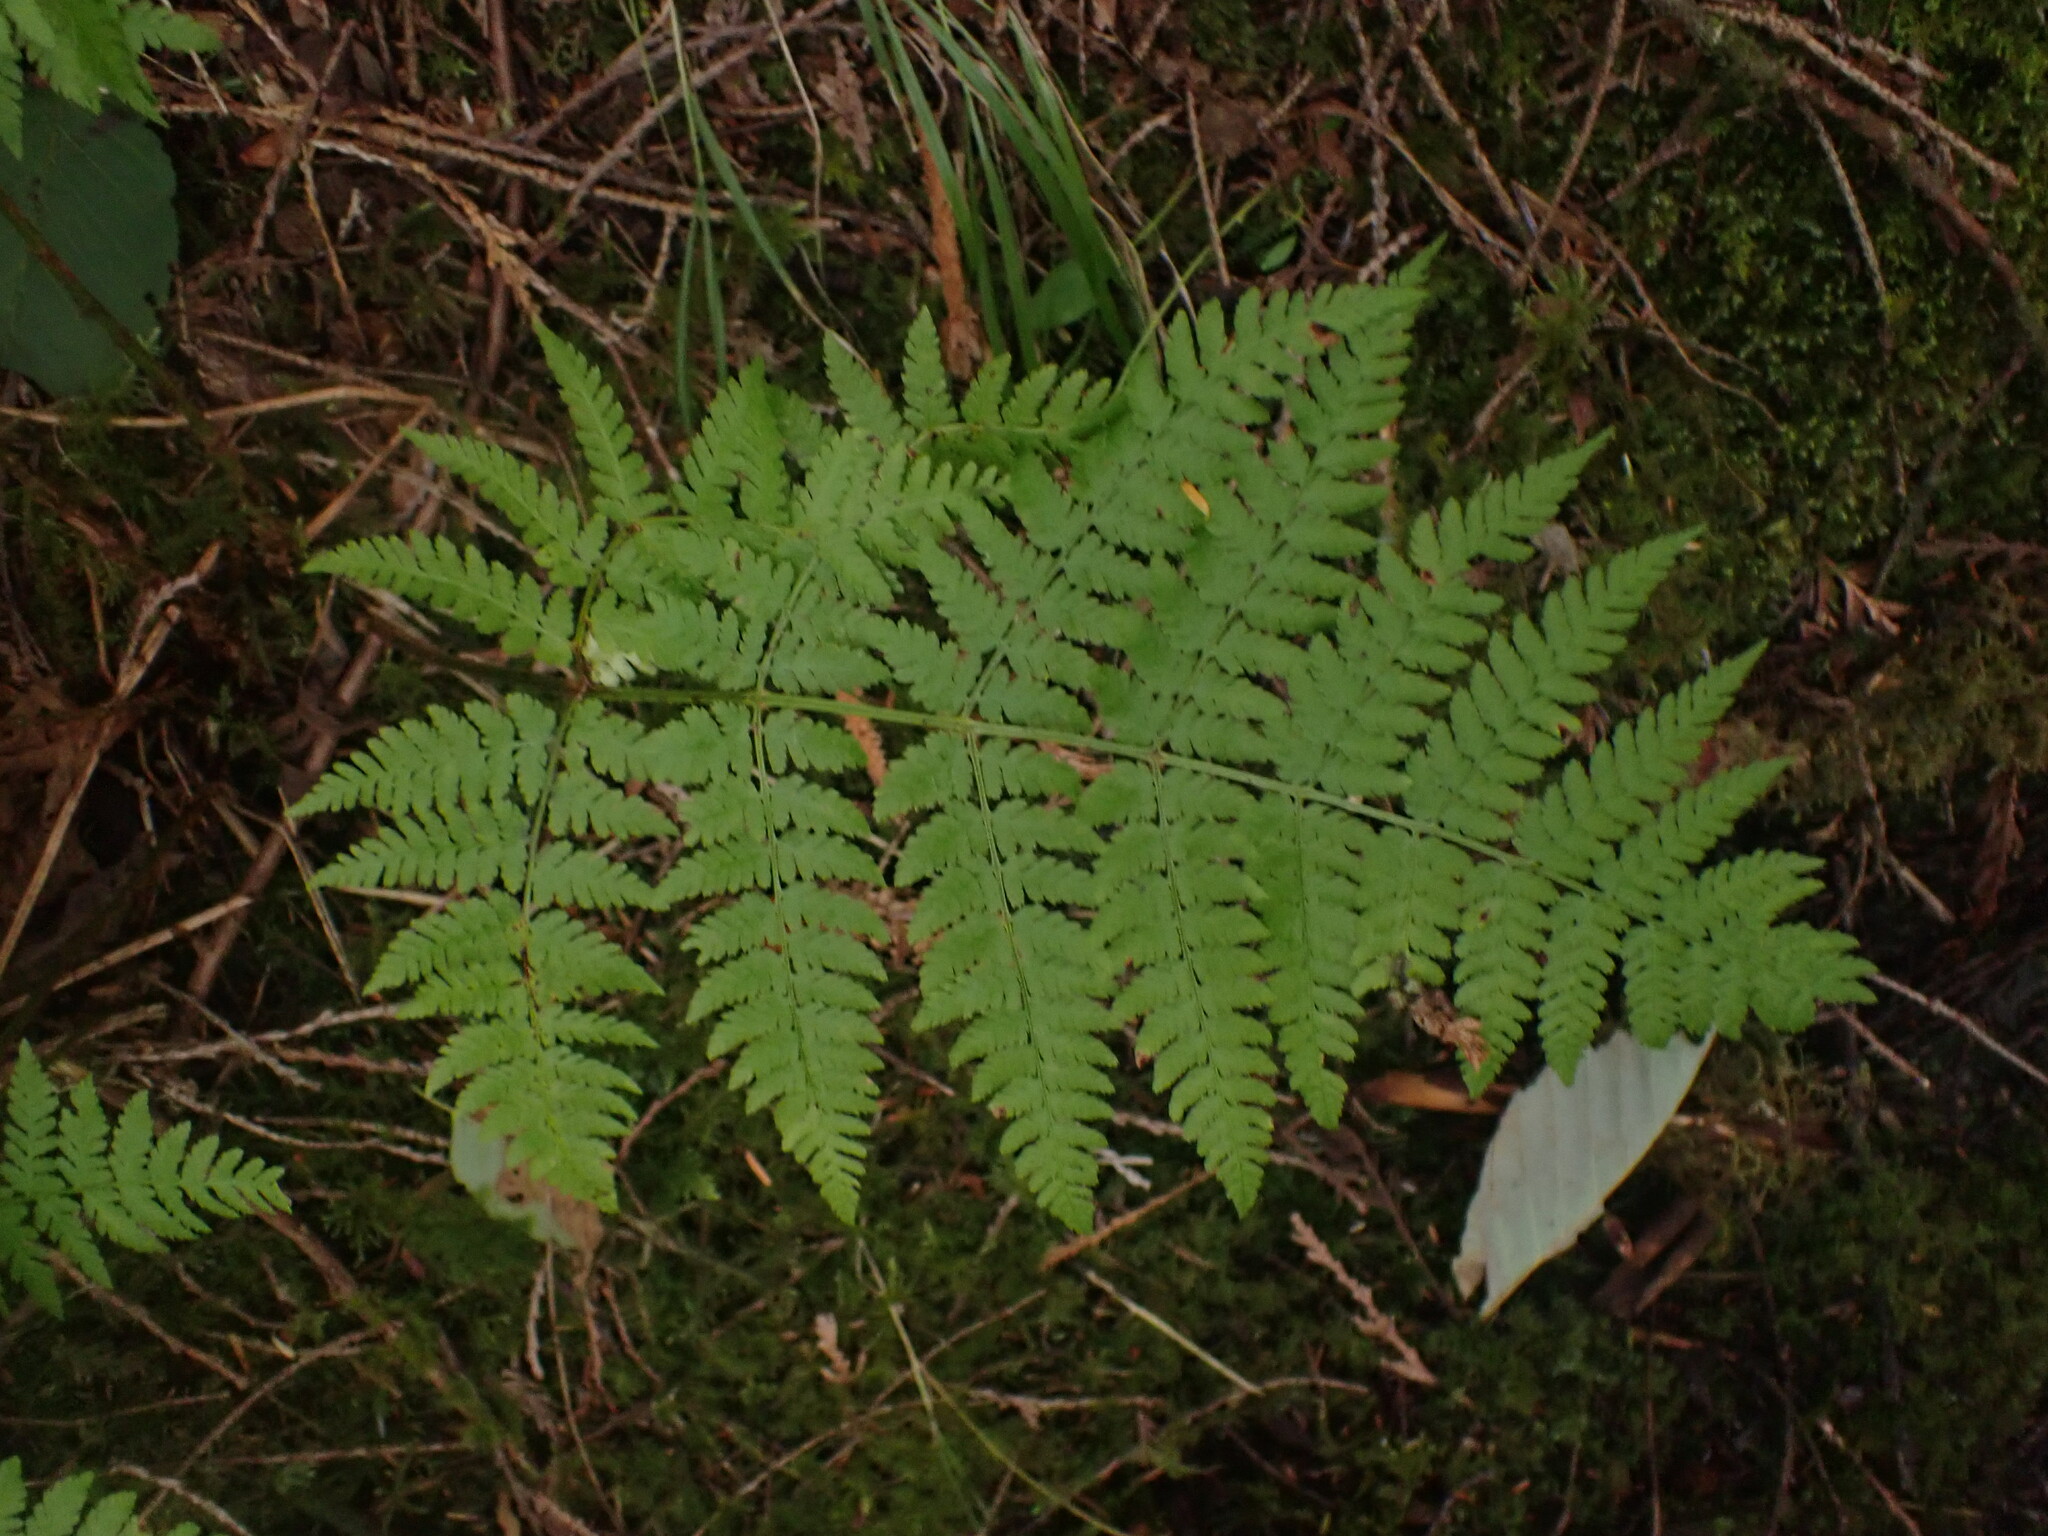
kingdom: Plantae
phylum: Tracheophyta
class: Polypodiopsida
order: Polypodiales
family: Dryopteridaceae
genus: Dryopteris
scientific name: Dryopteris expansa
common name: Northern buckler fern
